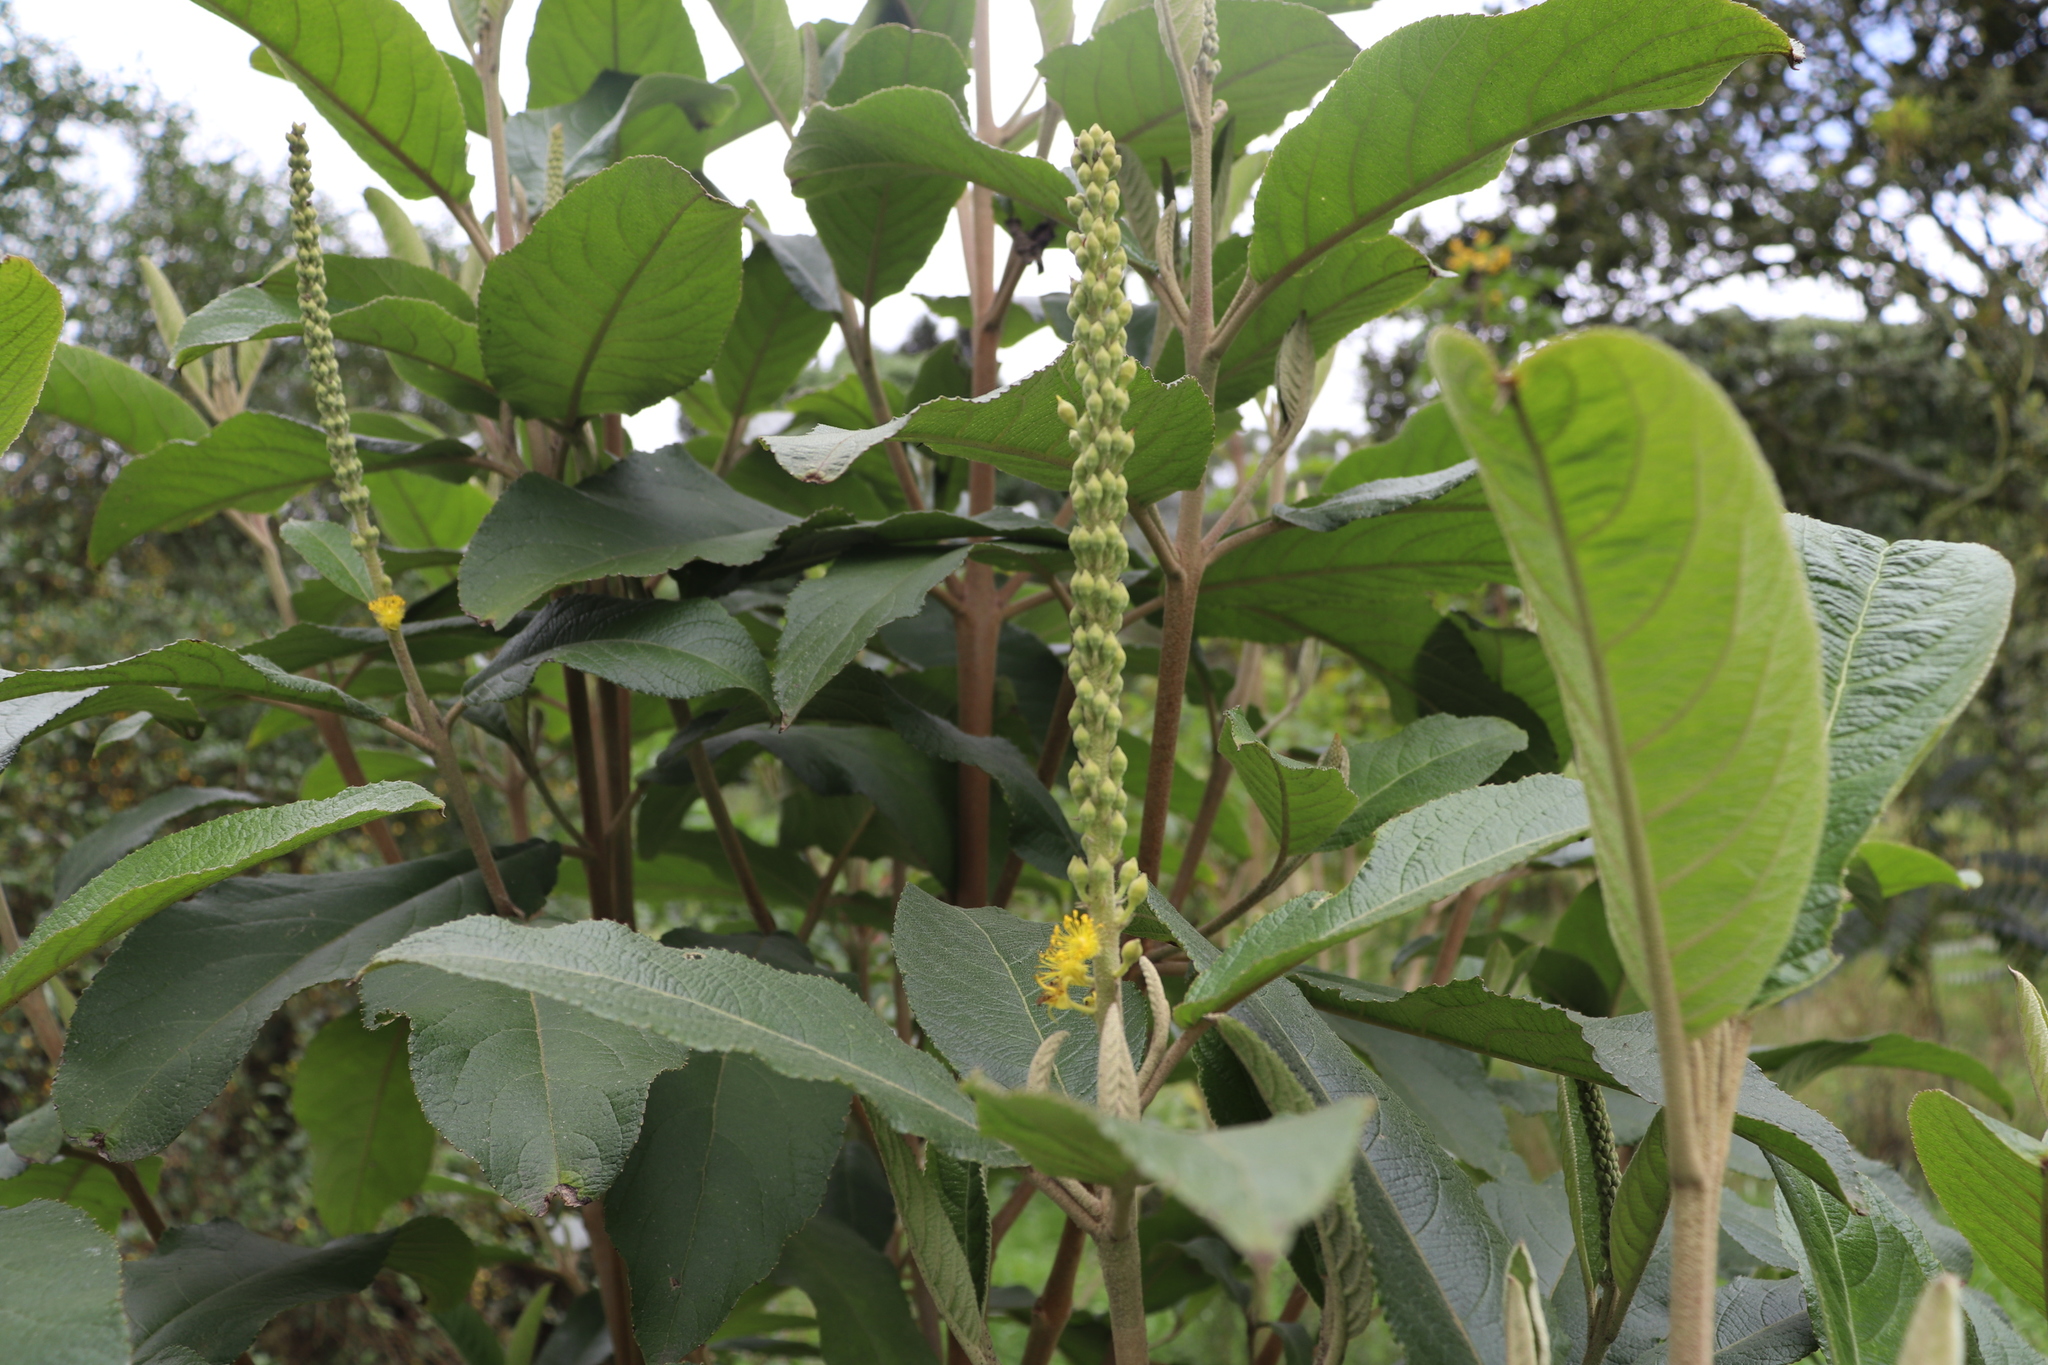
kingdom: Plantae
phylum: Tracheophyta
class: Magnoliopsida
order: Malpighiales
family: Salicaceae
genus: Abatia
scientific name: Abatia parviflora
